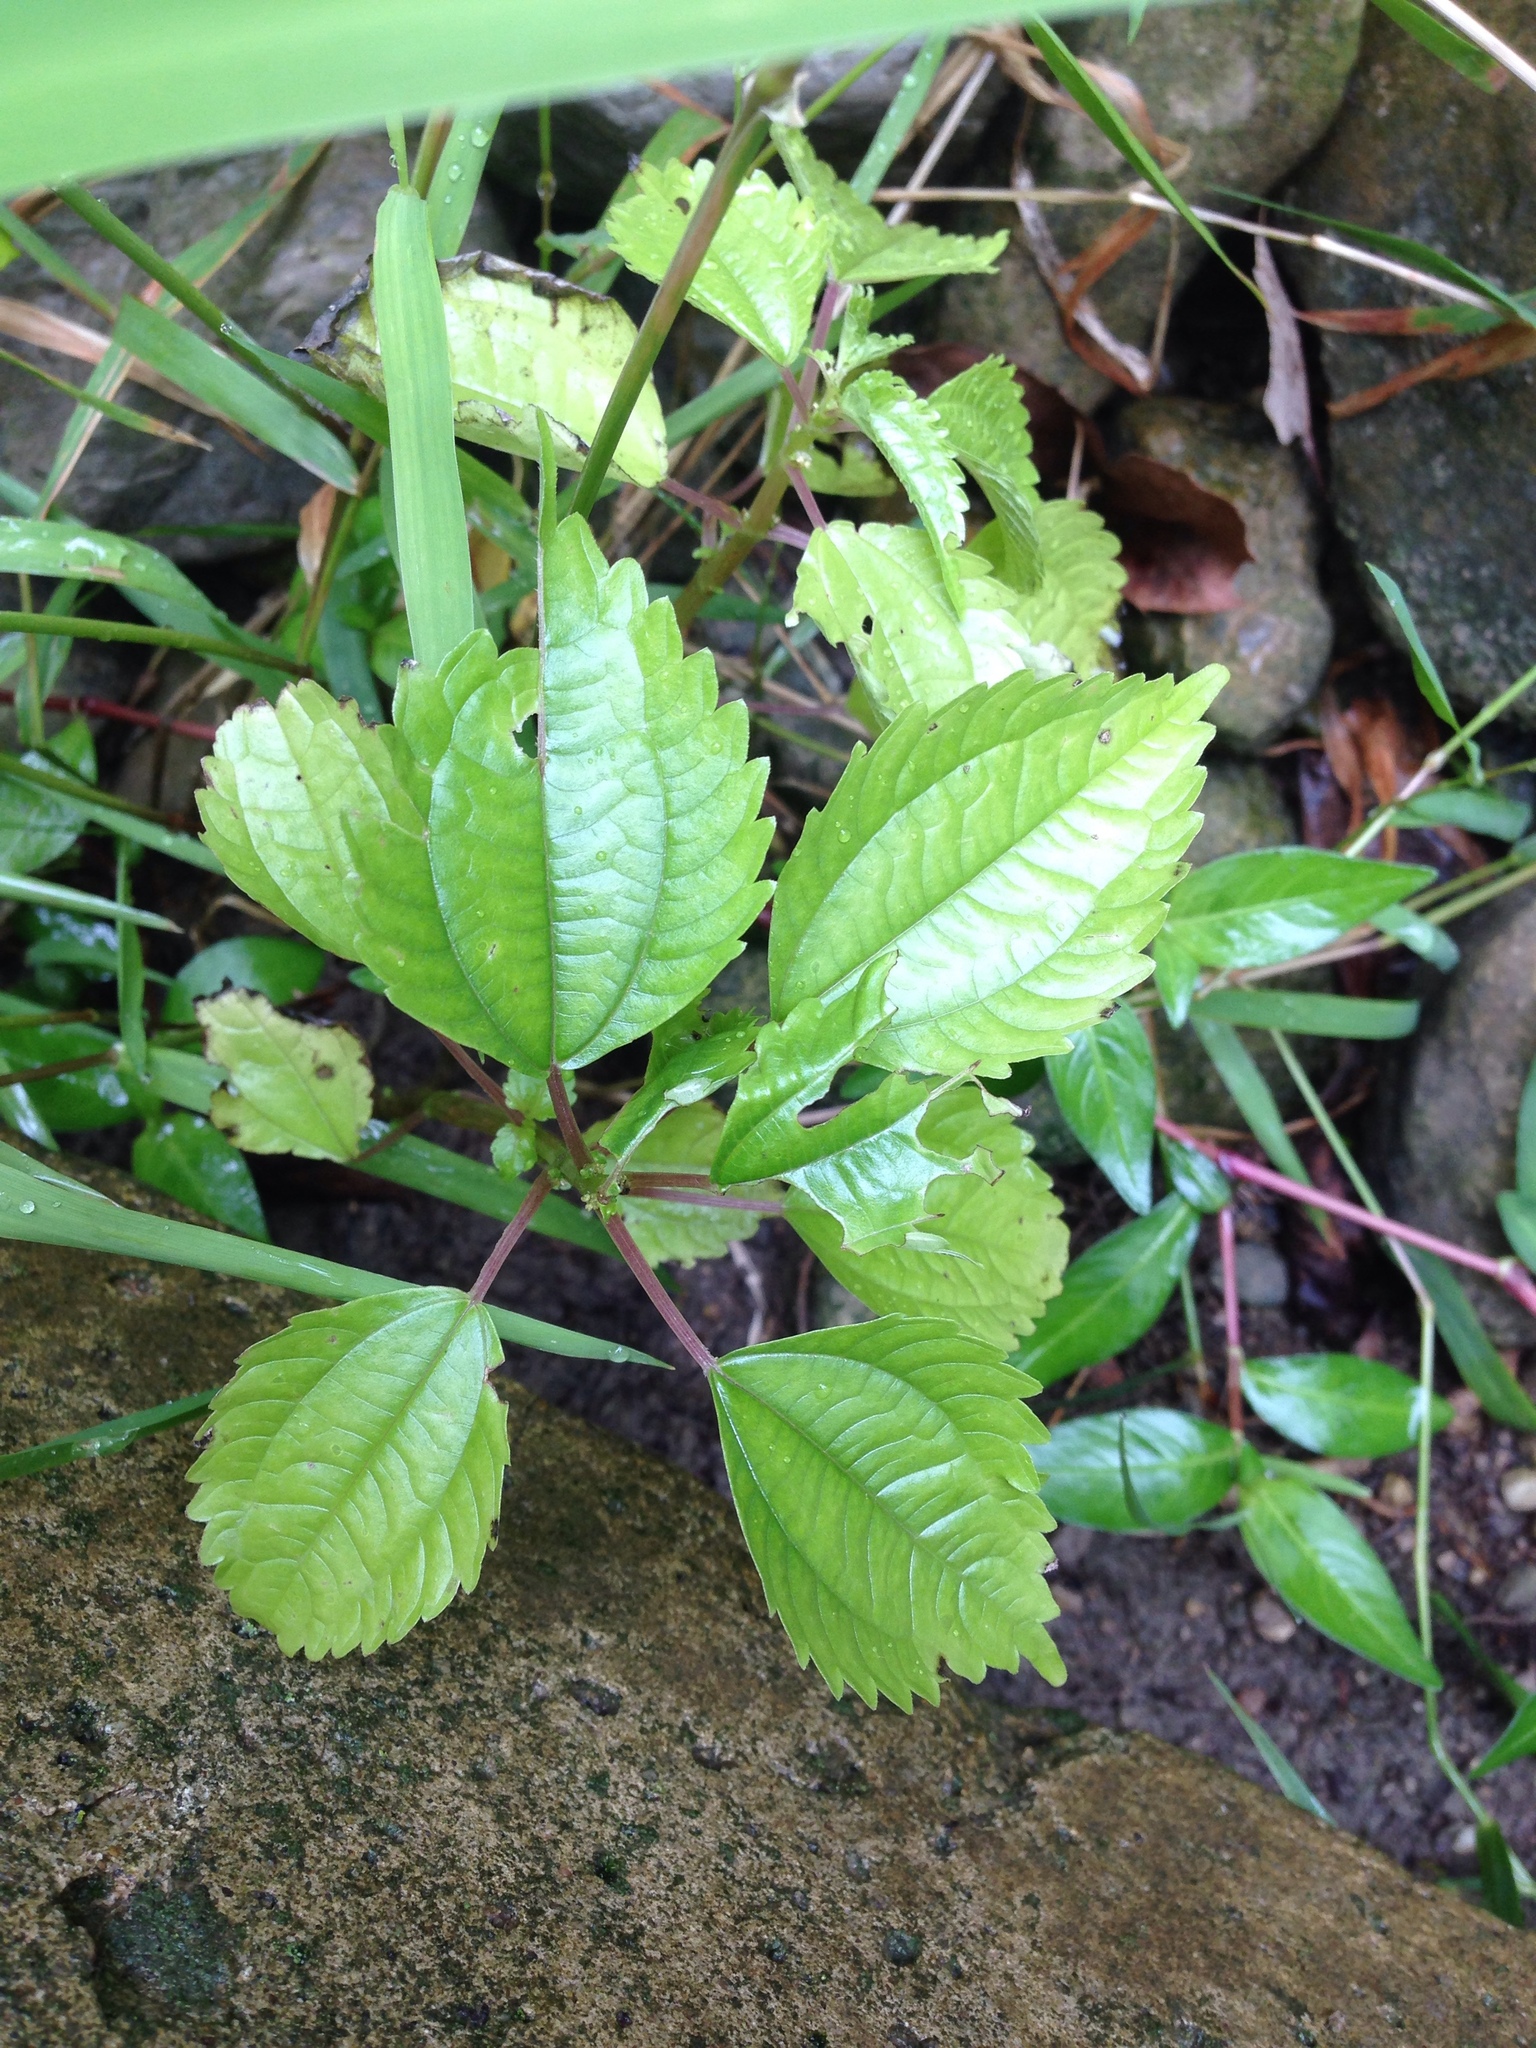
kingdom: Plantae
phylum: Tracheophyta
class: Magnoliopsida
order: Rosales
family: Urticaceae
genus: Pilea
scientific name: Pilea pumila
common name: Clearweed
